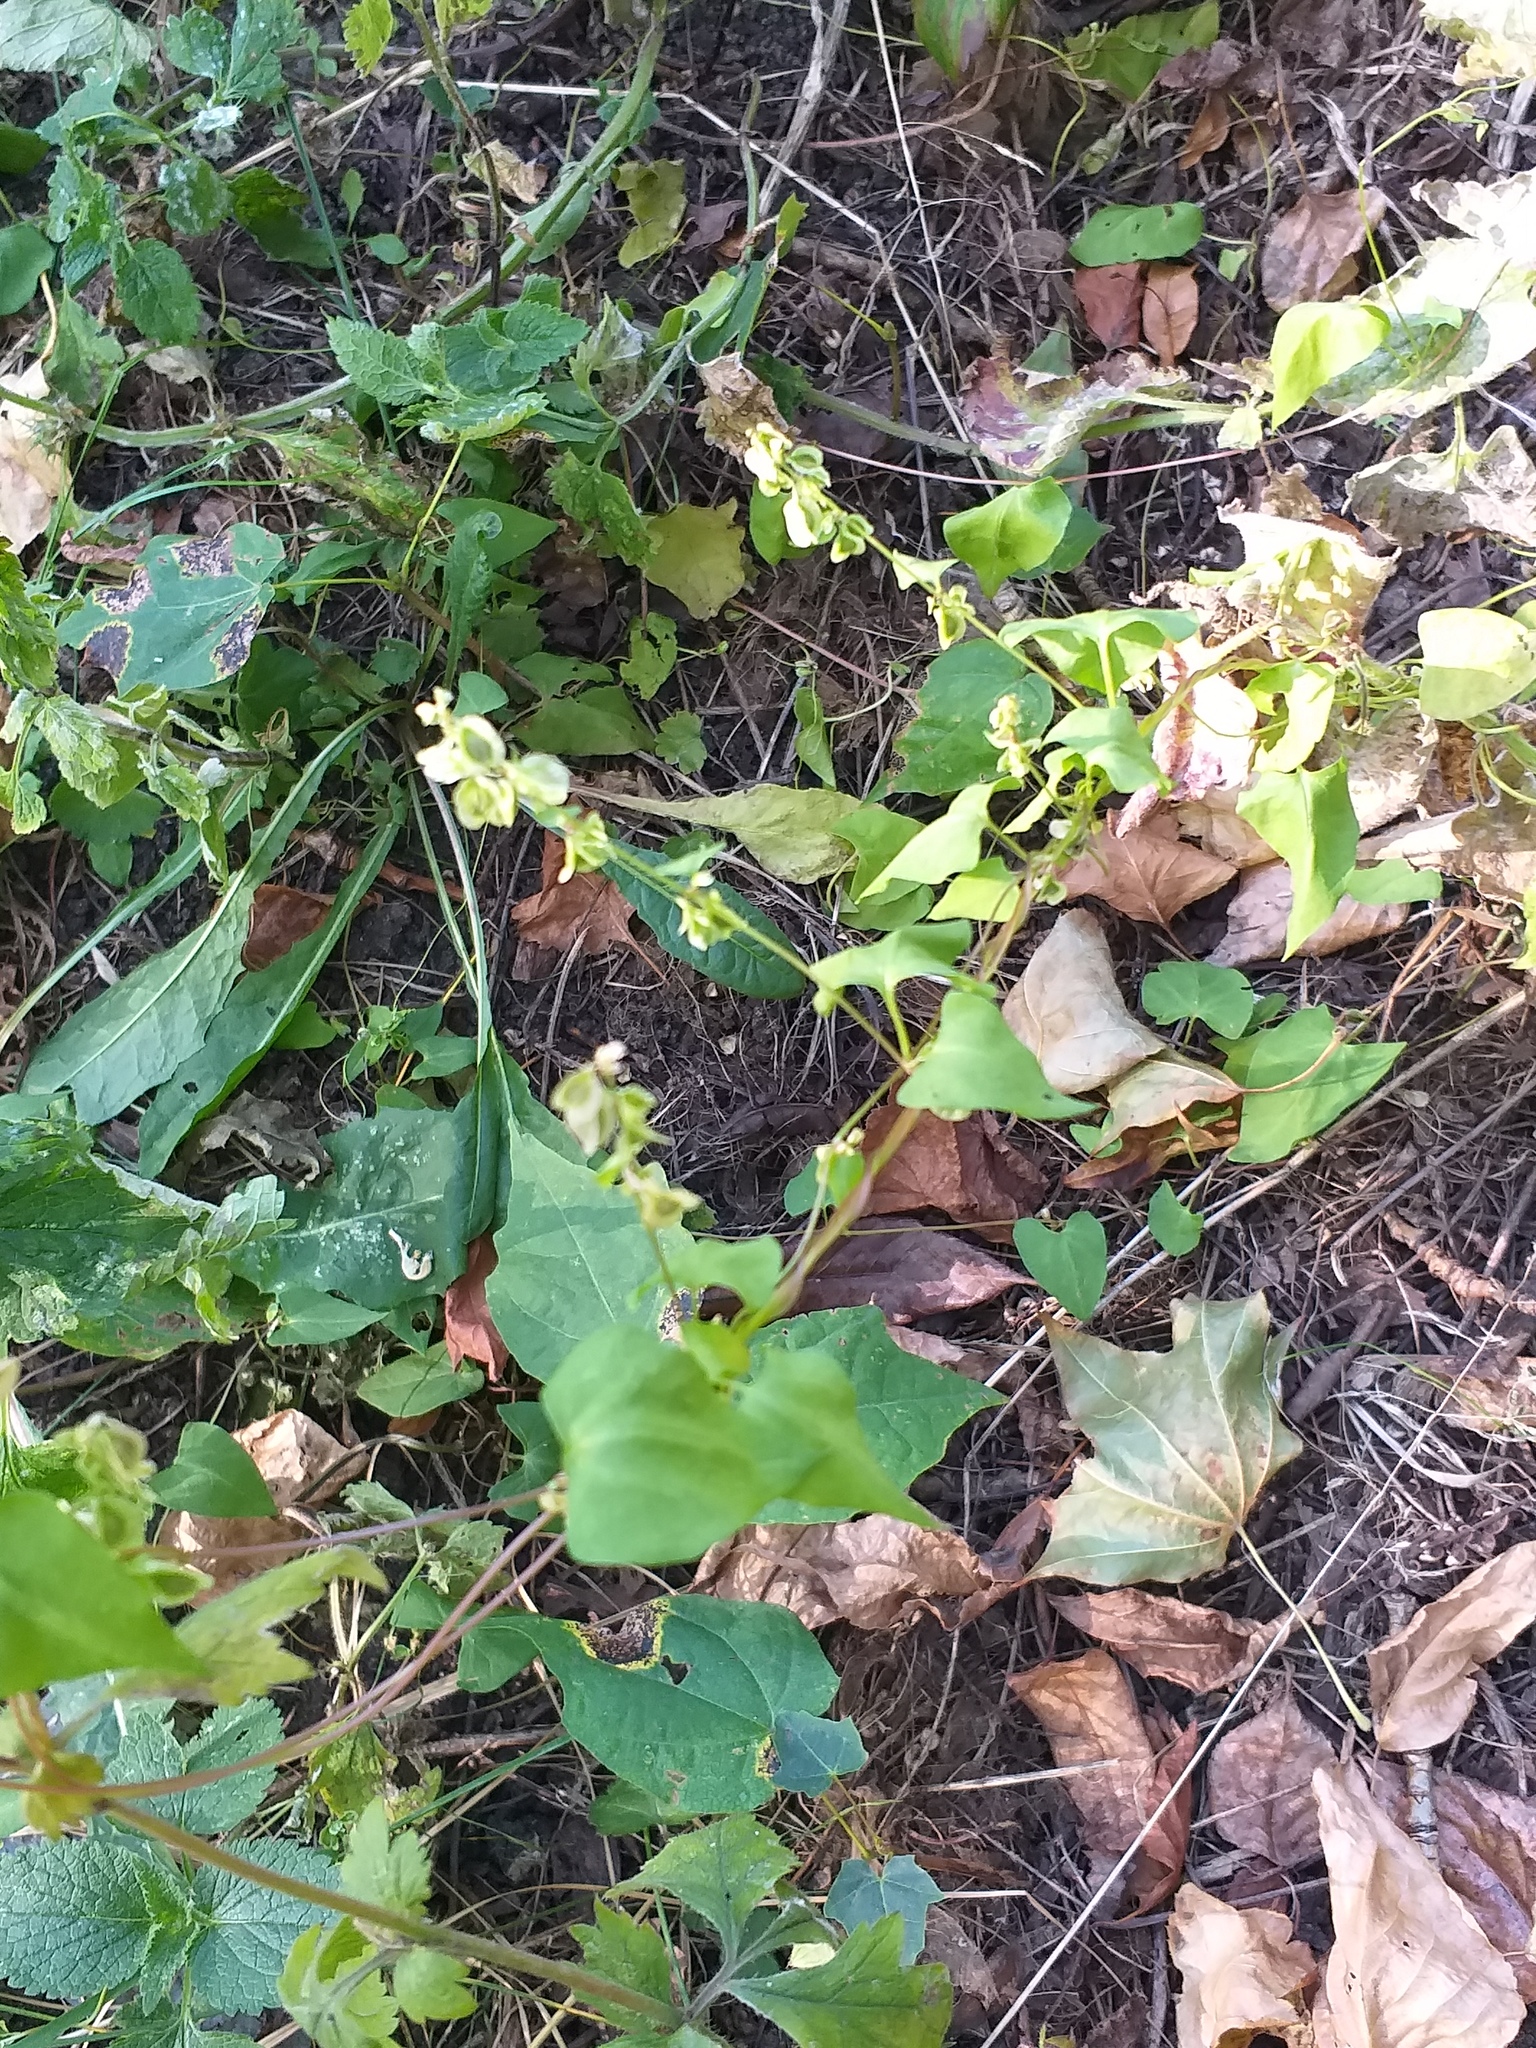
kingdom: Plantae
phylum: Tracheophyta
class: Magnoliopsida
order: Caryophyllales
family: Polygonaceae
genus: Fallopia
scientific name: Fallopia dumetorum
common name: Copse-bindweed
